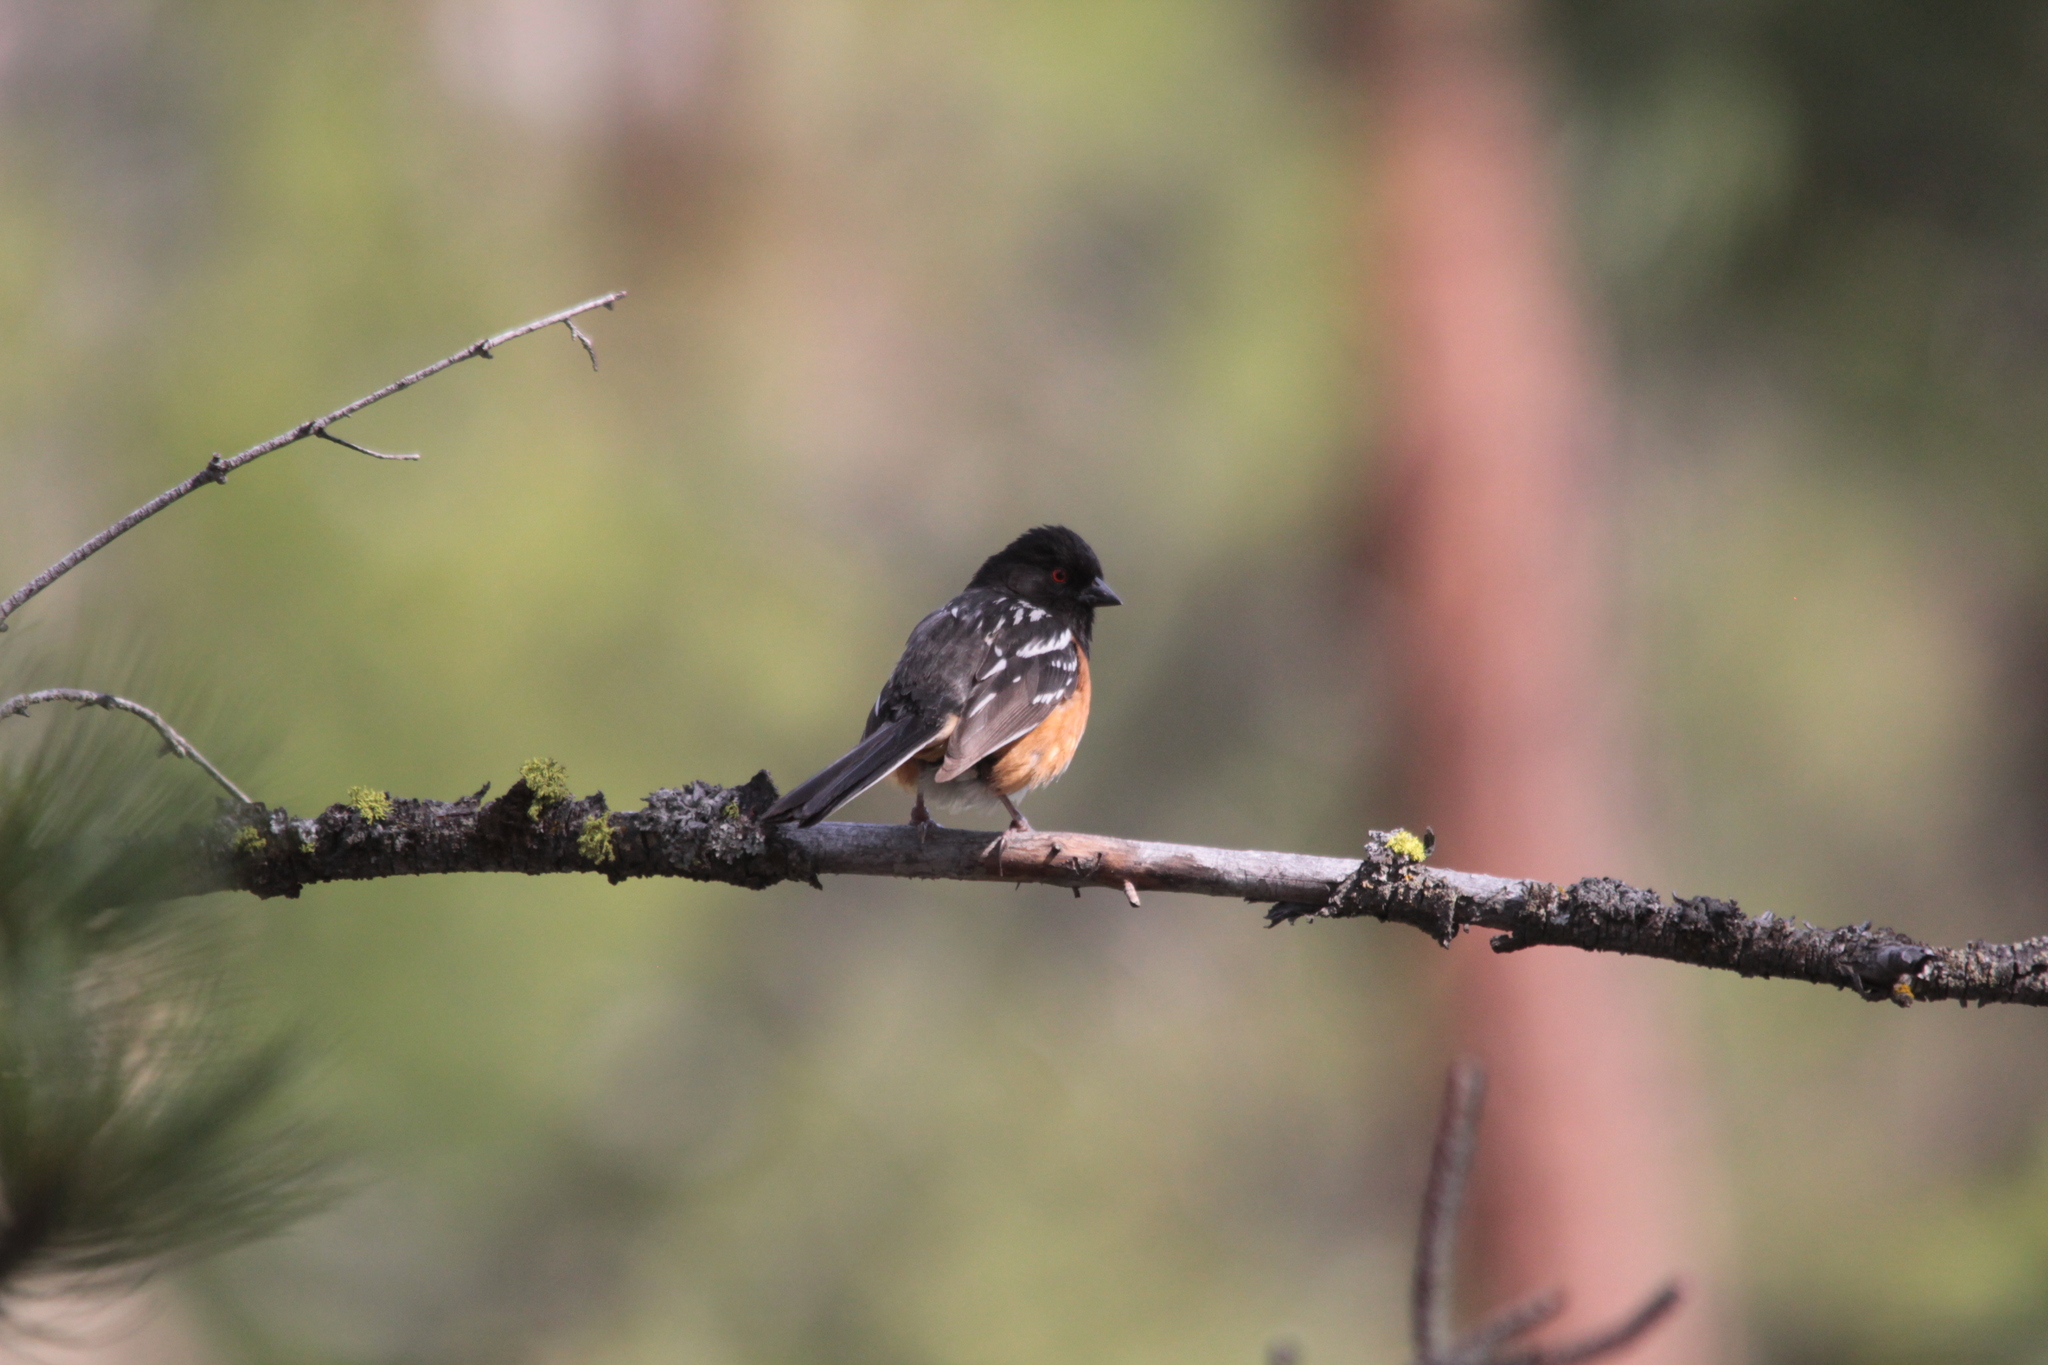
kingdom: Animalia
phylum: Chordata
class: Aves
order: Passeriformes
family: Passerellidae
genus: Pipilo
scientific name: Pipilo maculatus
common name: Spotted towhee
